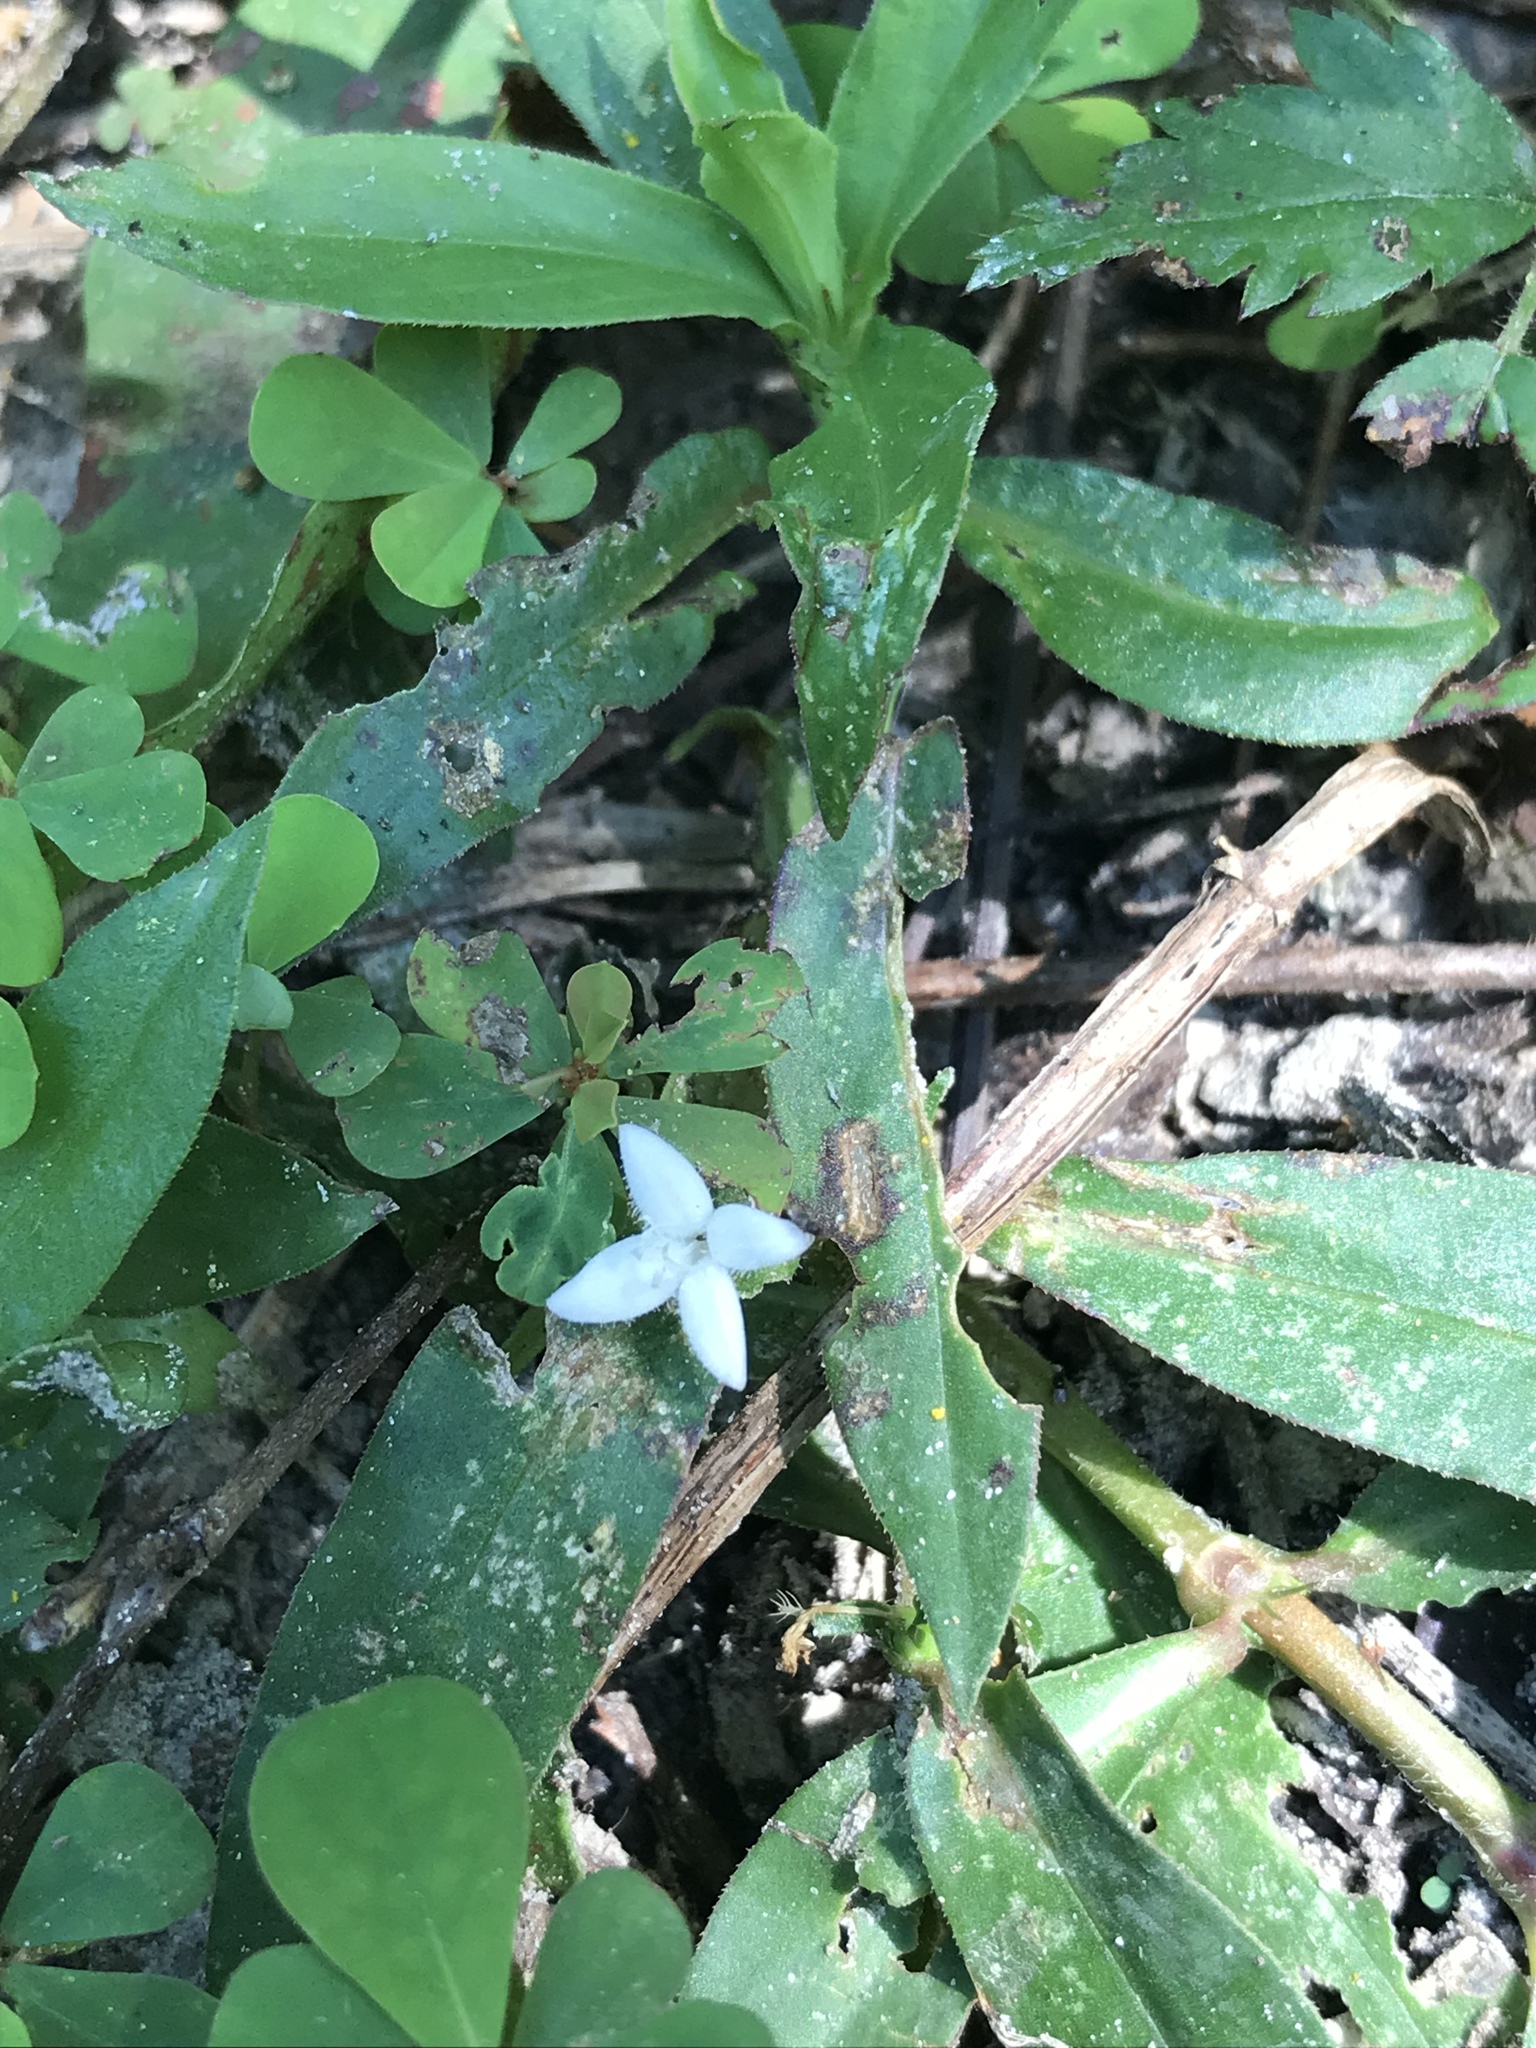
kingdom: Plantae
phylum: Tracheophyta
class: Magnoliopsida
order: Gentianales
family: Rubiaceae
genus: Diodia
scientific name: Diodia virginiana
